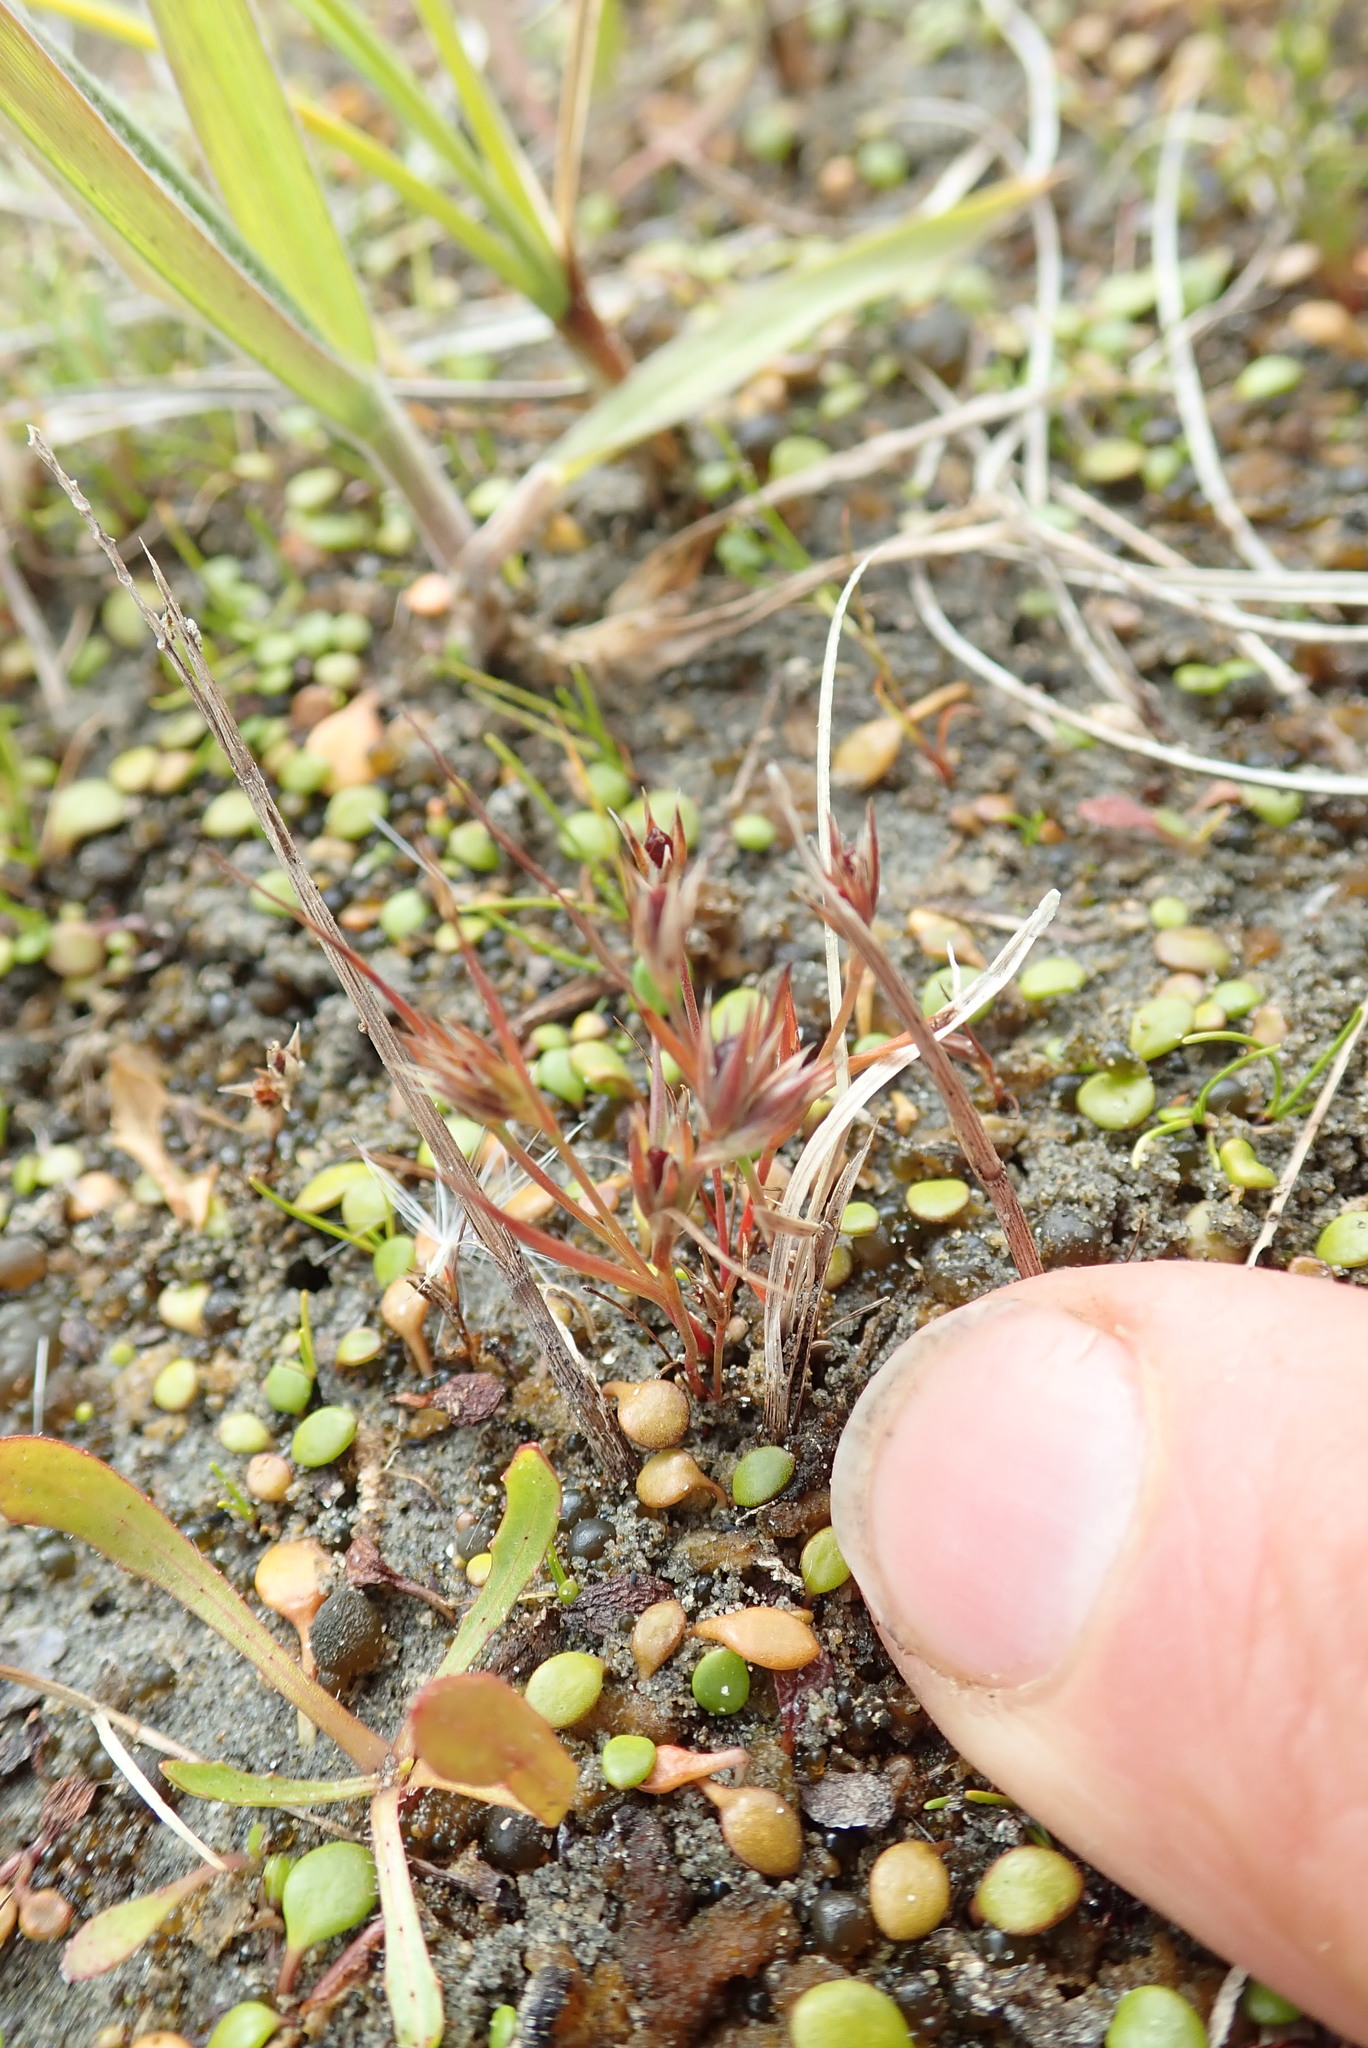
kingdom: Plantae
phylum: Tracheophyta
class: Liliopsida
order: Poales
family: Juncaceae
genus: Juncus
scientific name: Juncus bufonius
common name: Toad rush
